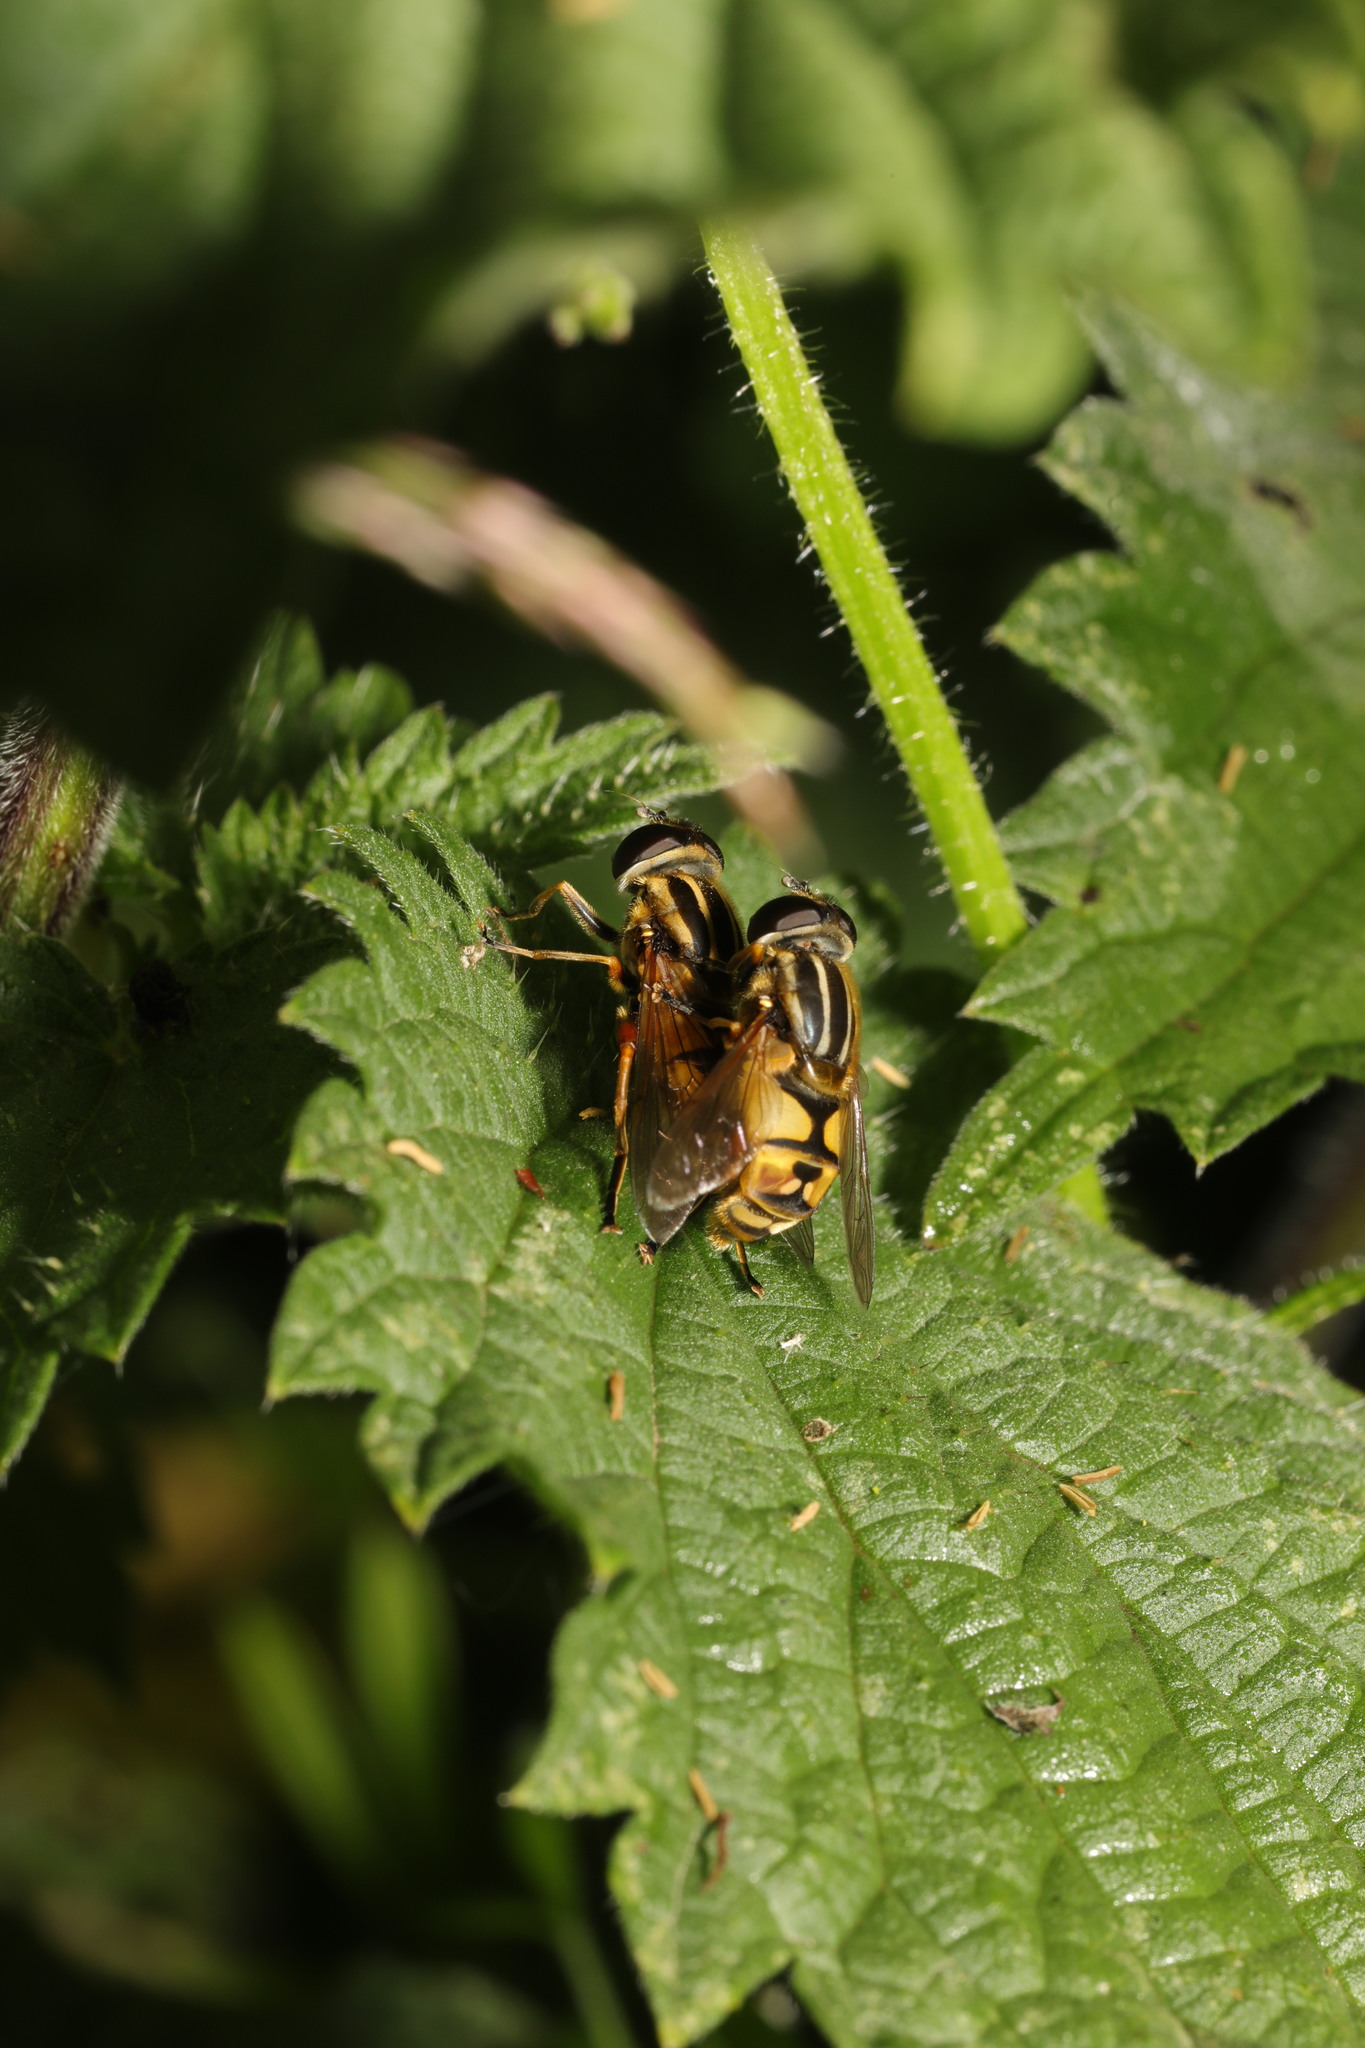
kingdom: Animalia
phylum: Arthropoda
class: Insecta
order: Diptera
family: Syrphidae
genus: Helophilus
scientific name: Helophilus pendulus
